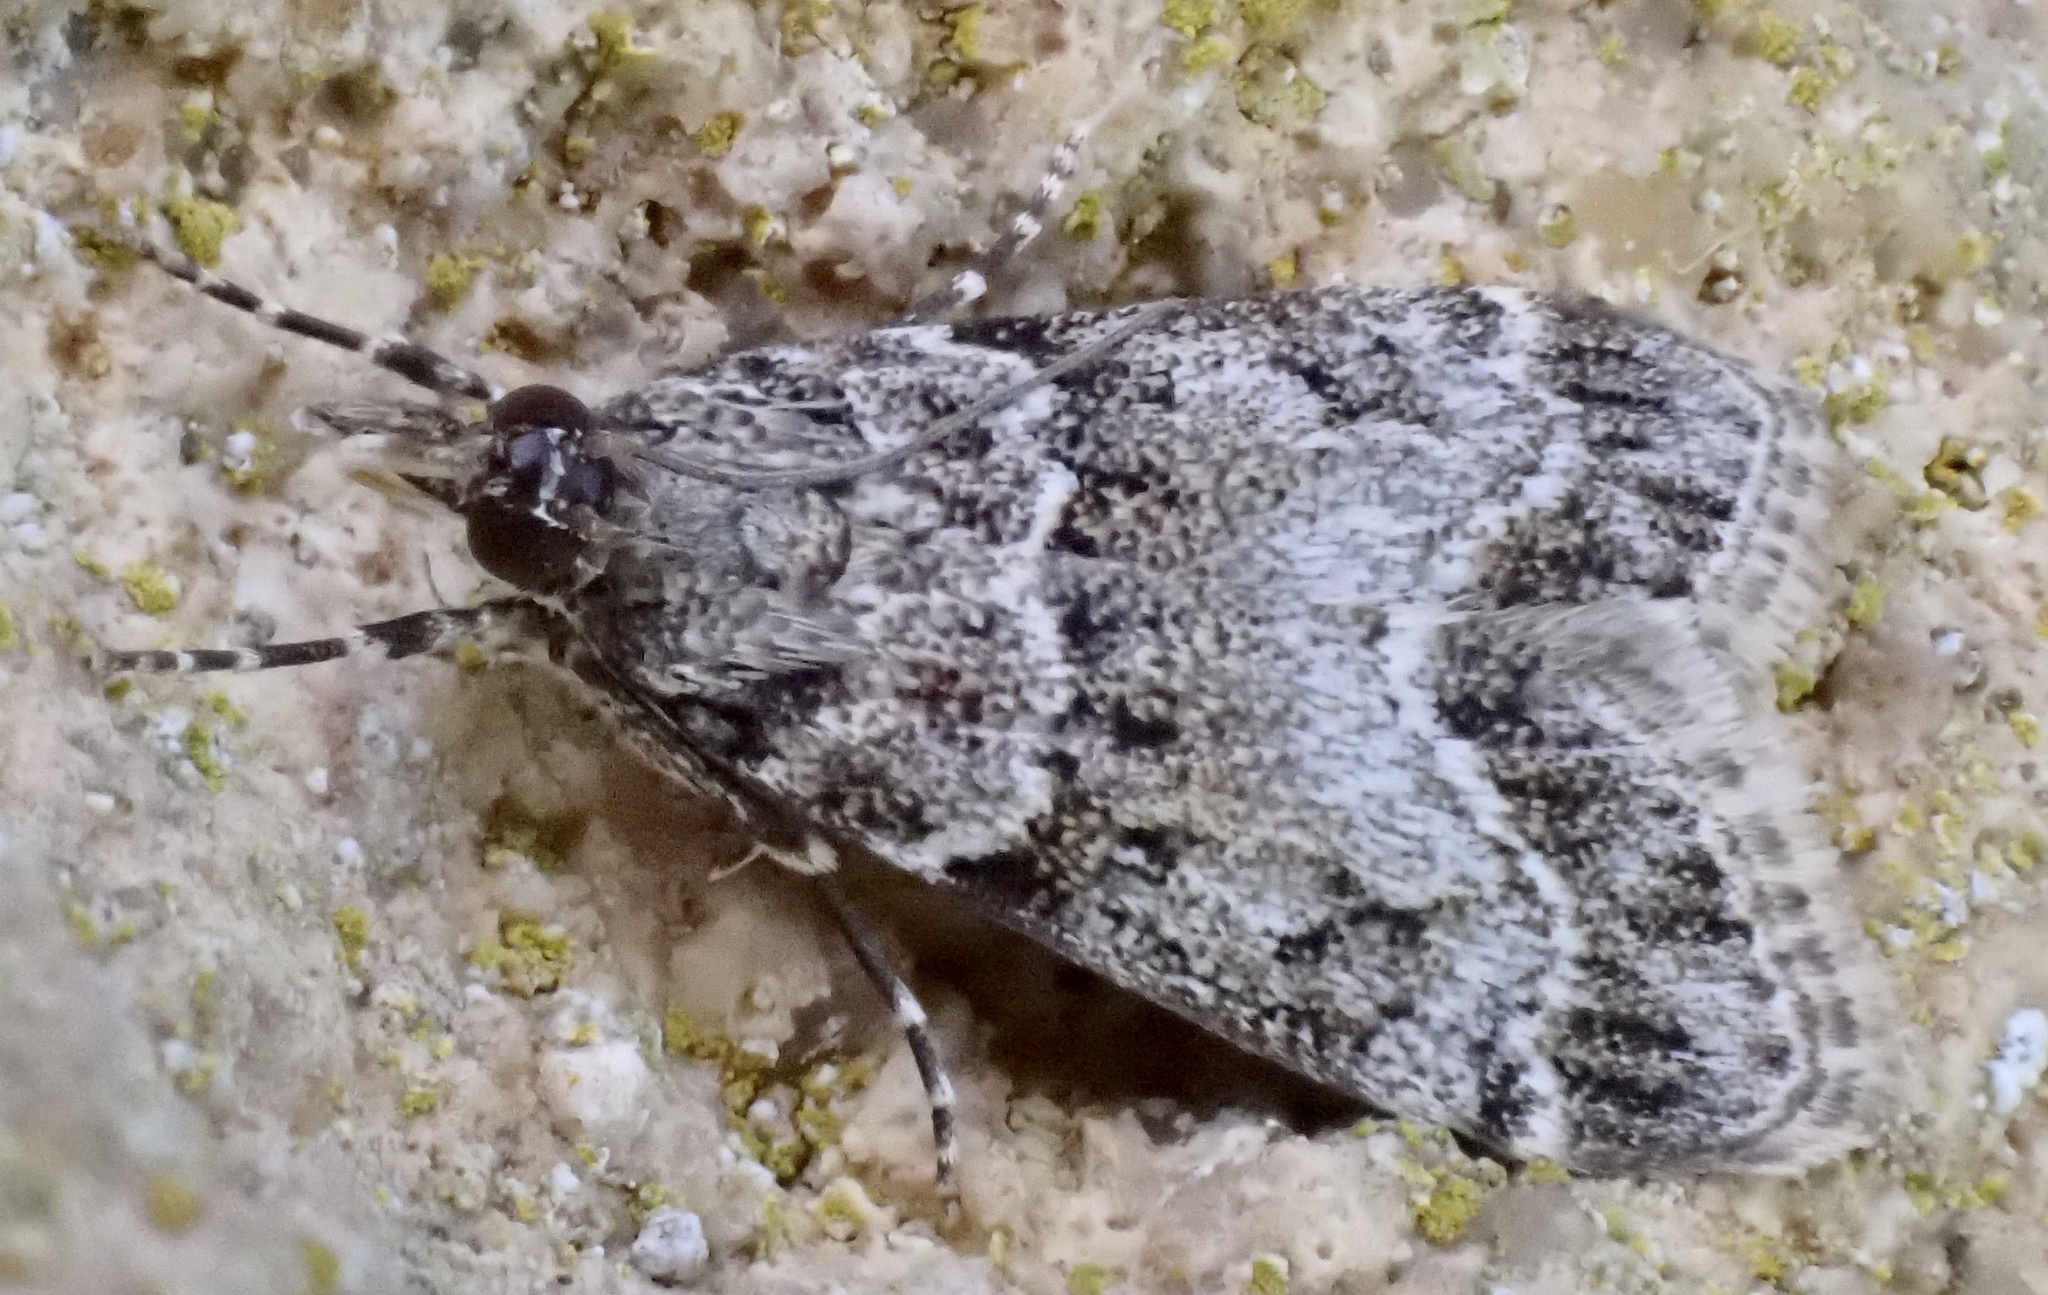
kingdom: Animalia
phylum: Arthropoda
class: Insecta
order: Lepidoptera
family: Crambidae
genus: Eudonia
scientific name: Eudonia mercurella
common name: Small grey
